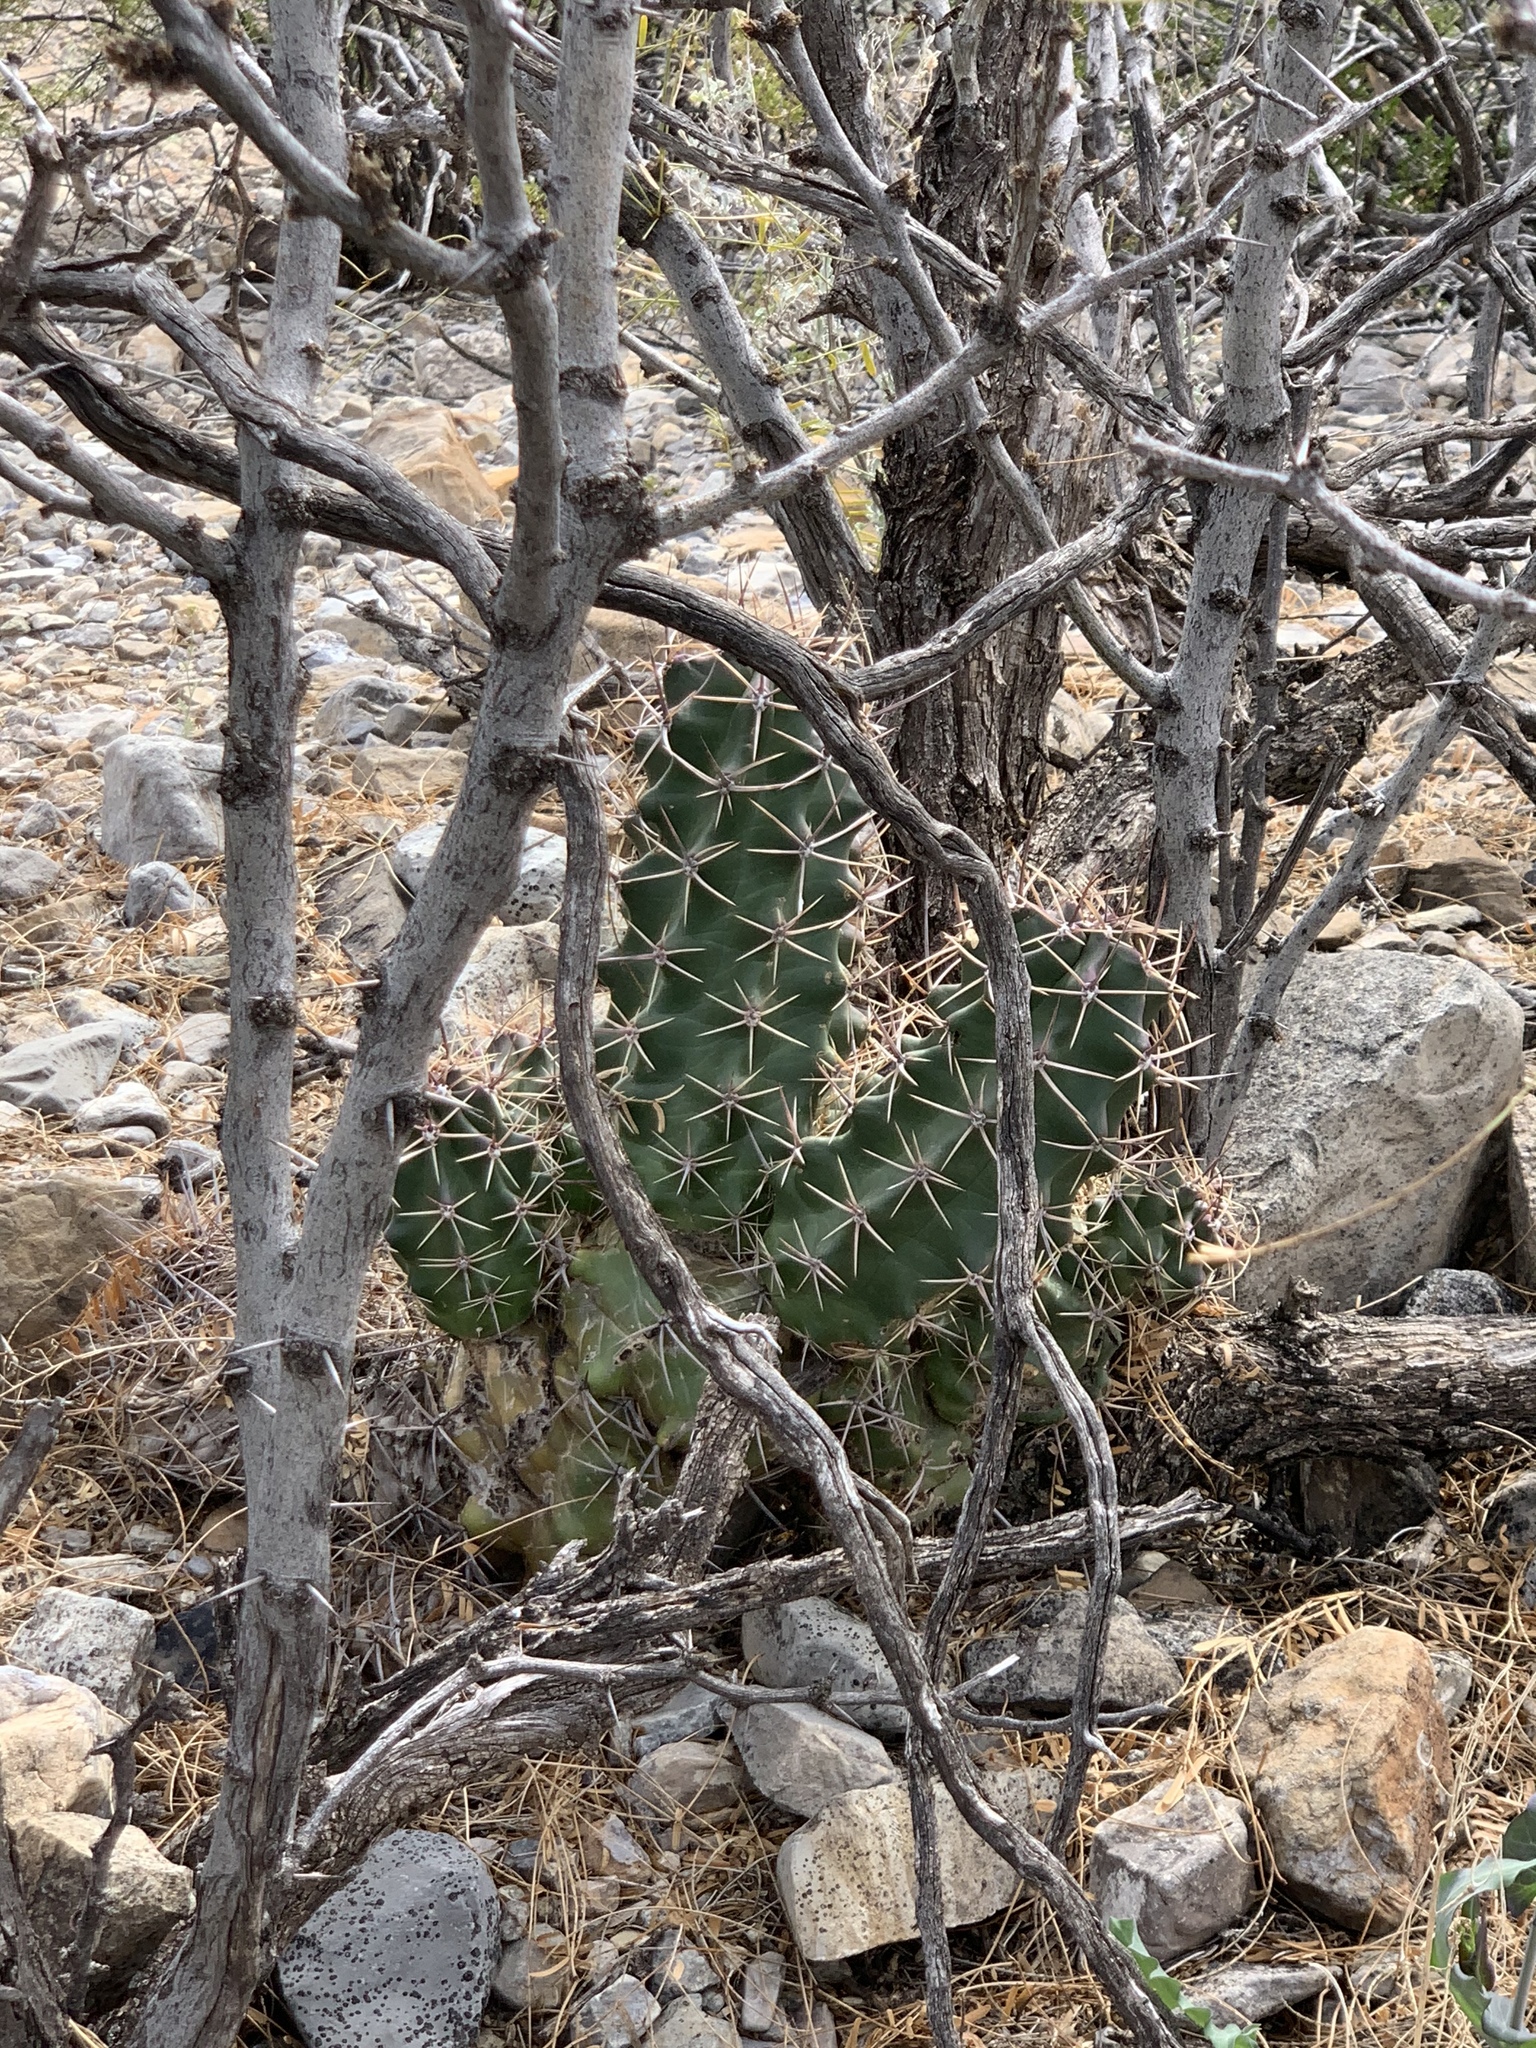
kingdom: Plantae
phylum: Tracheophyta
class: Magnoliopsida
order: Caryophyllales
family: Cactaceae
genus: Echinocereus
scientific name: Echinocereus triglochidiatus
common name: Claretcup hedgehog
